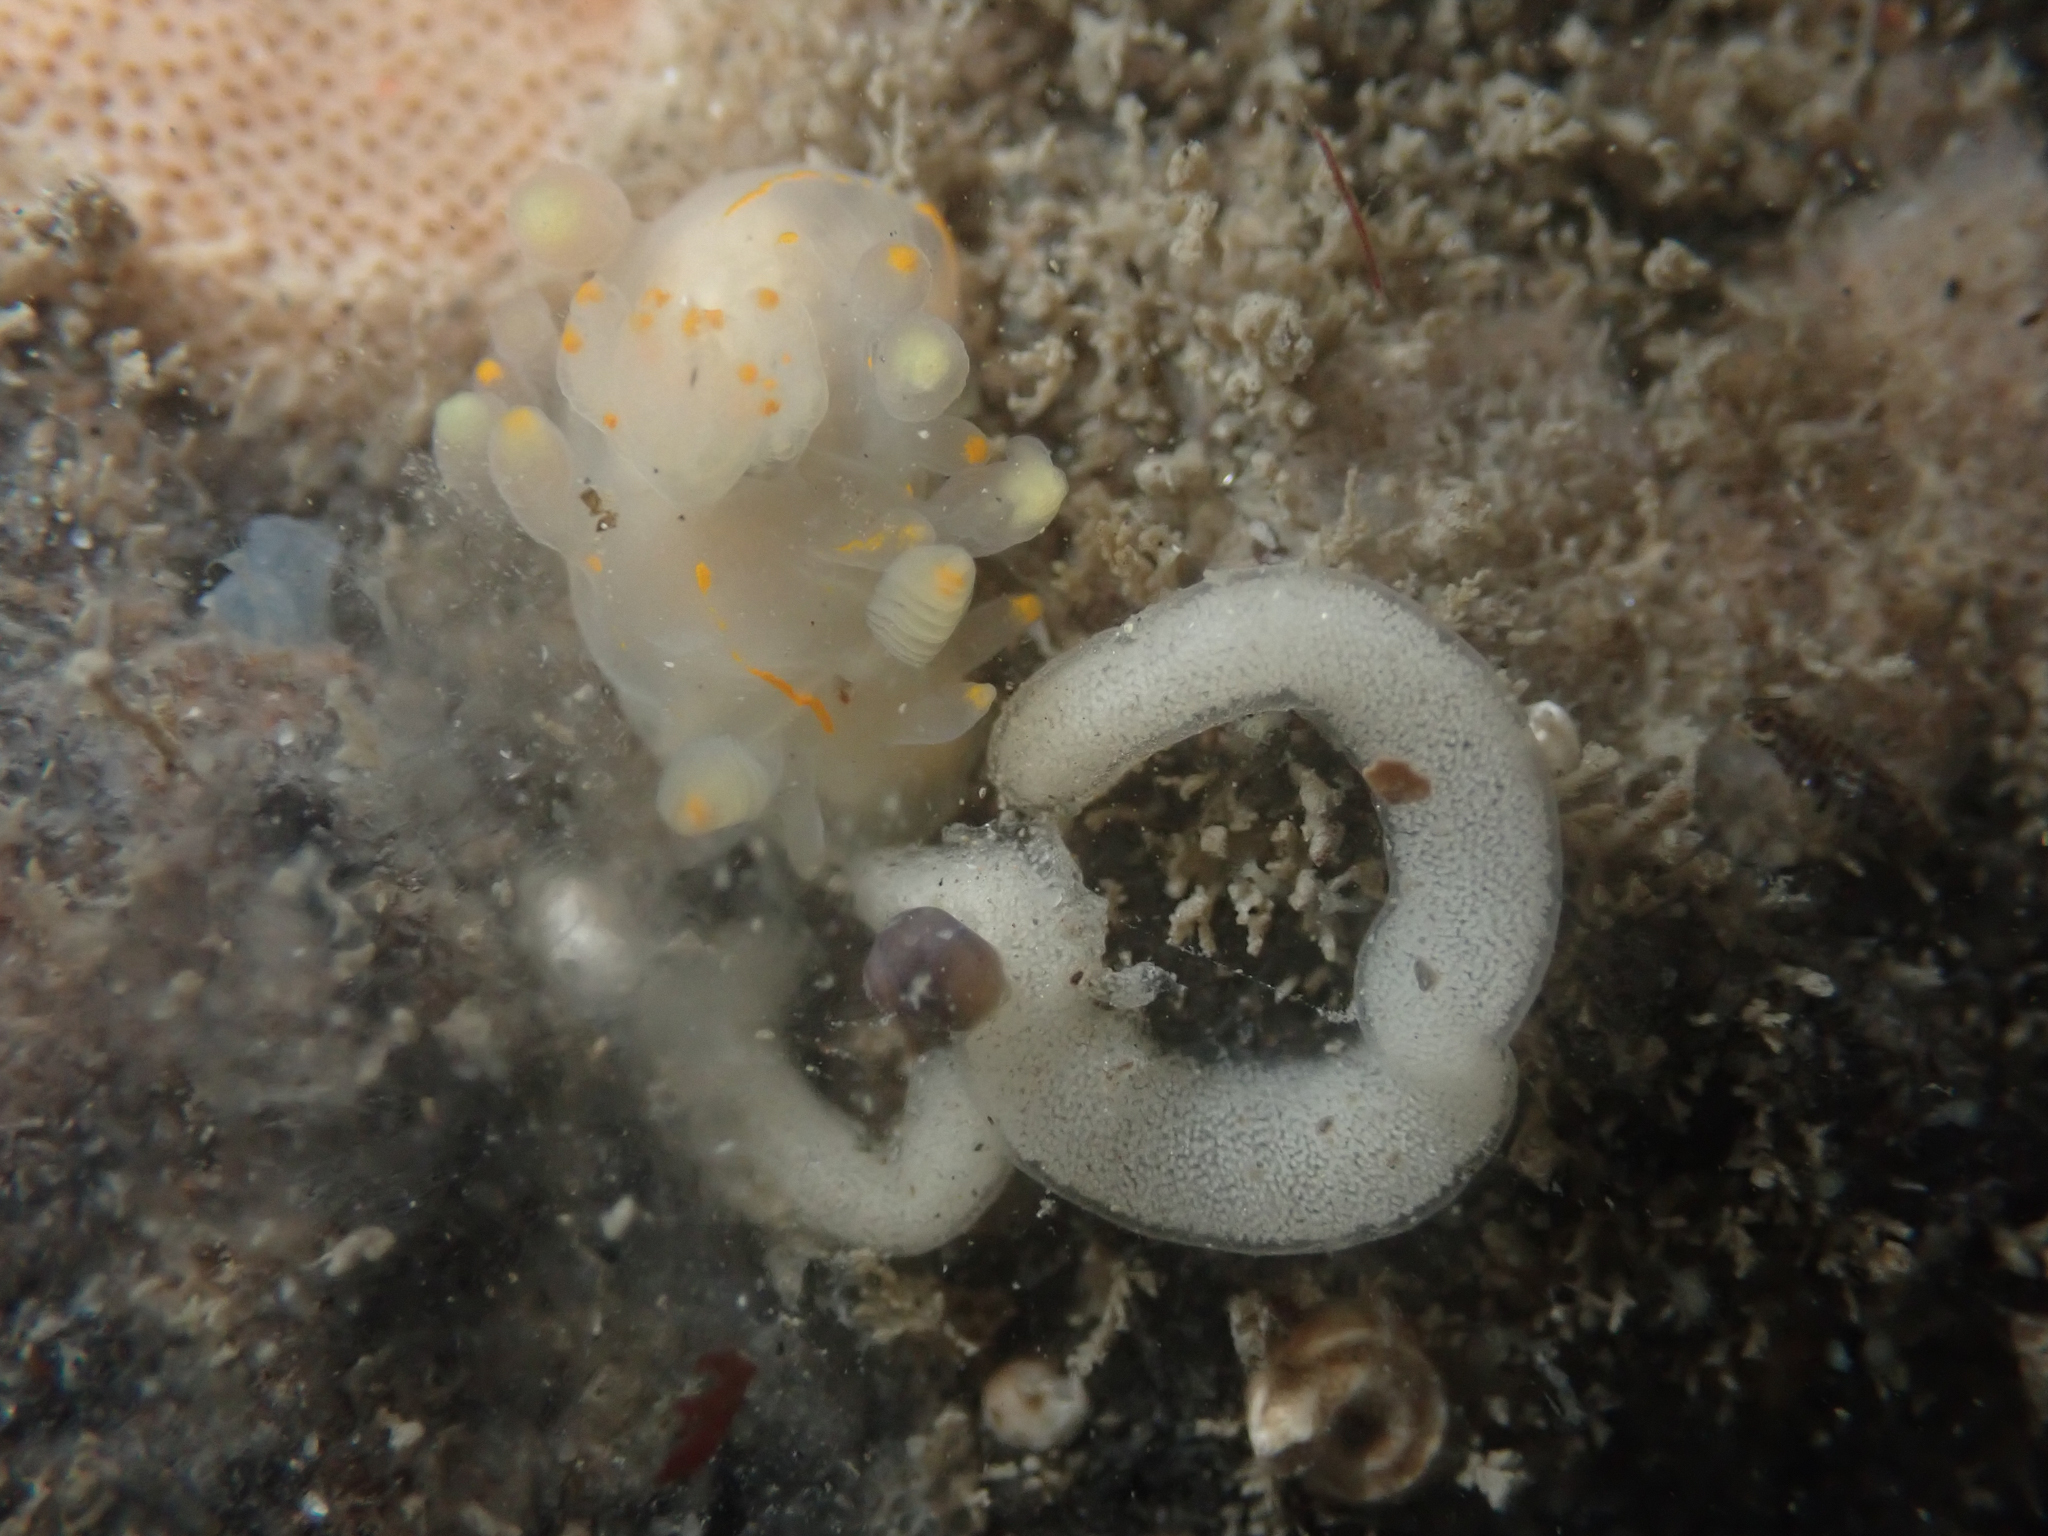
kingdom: Animalia
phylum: Mollusca
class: Gastropoda
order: Nudibranchia
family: Goniodorididae
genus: Ancula
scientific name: Ancula pacifica
